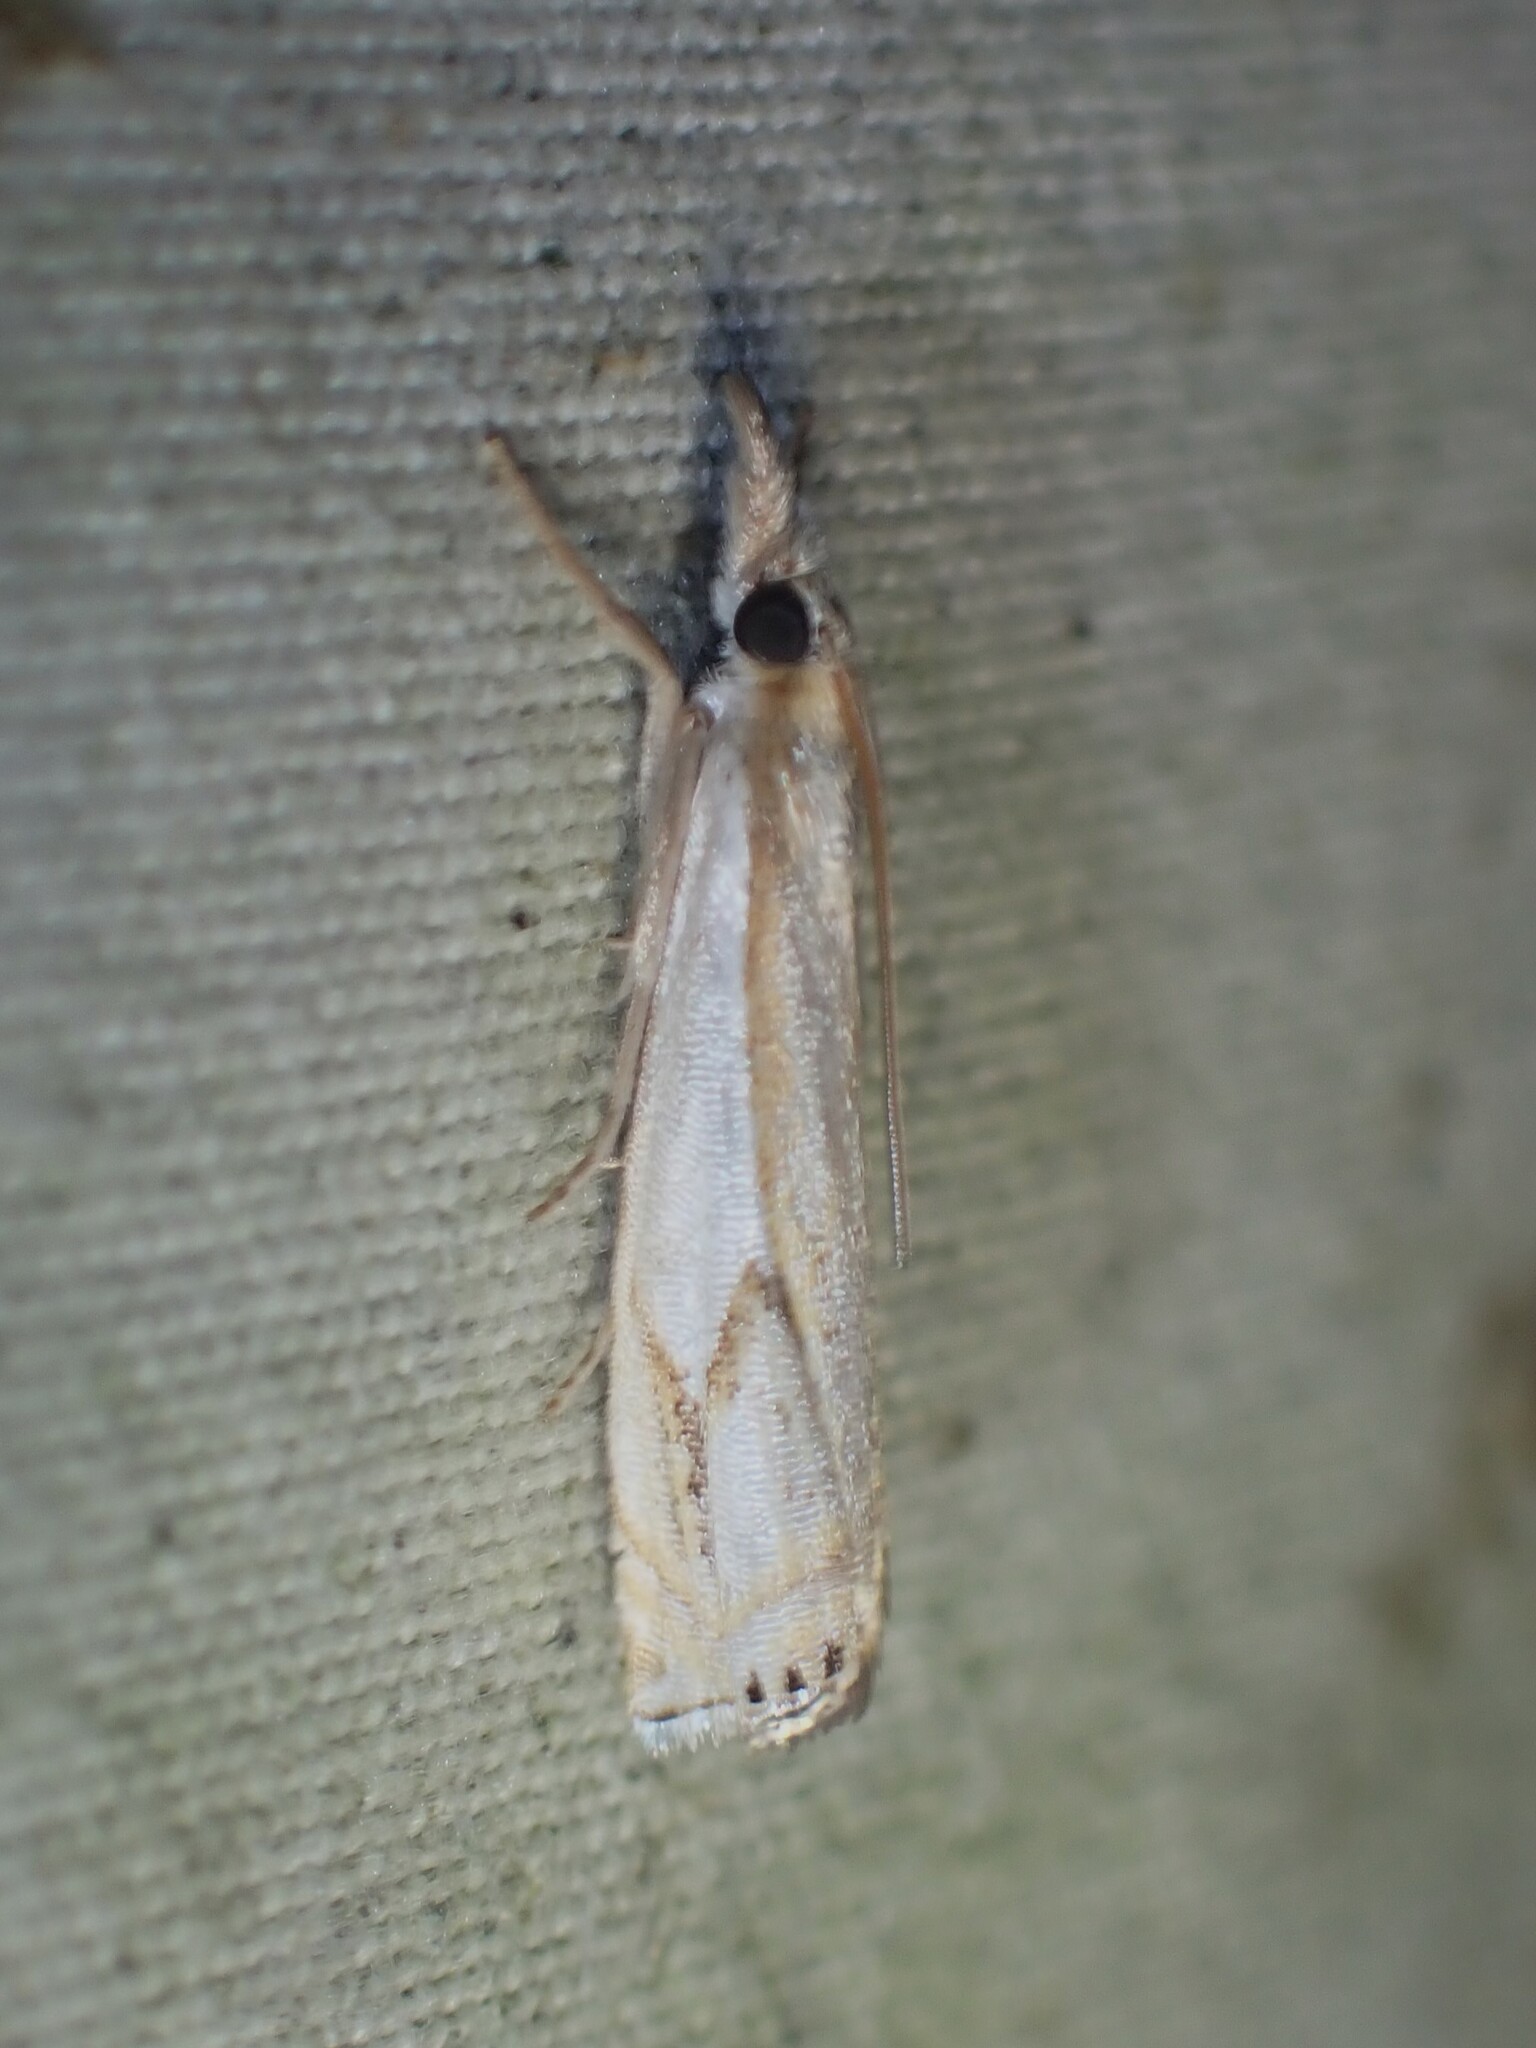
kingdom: Animalia
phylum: Arthropoda
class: Insecta
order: Lepidoptera
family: Crambidae
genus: Crambus
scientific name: Crambus agitatellus
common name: Double-banded grass-veneer
